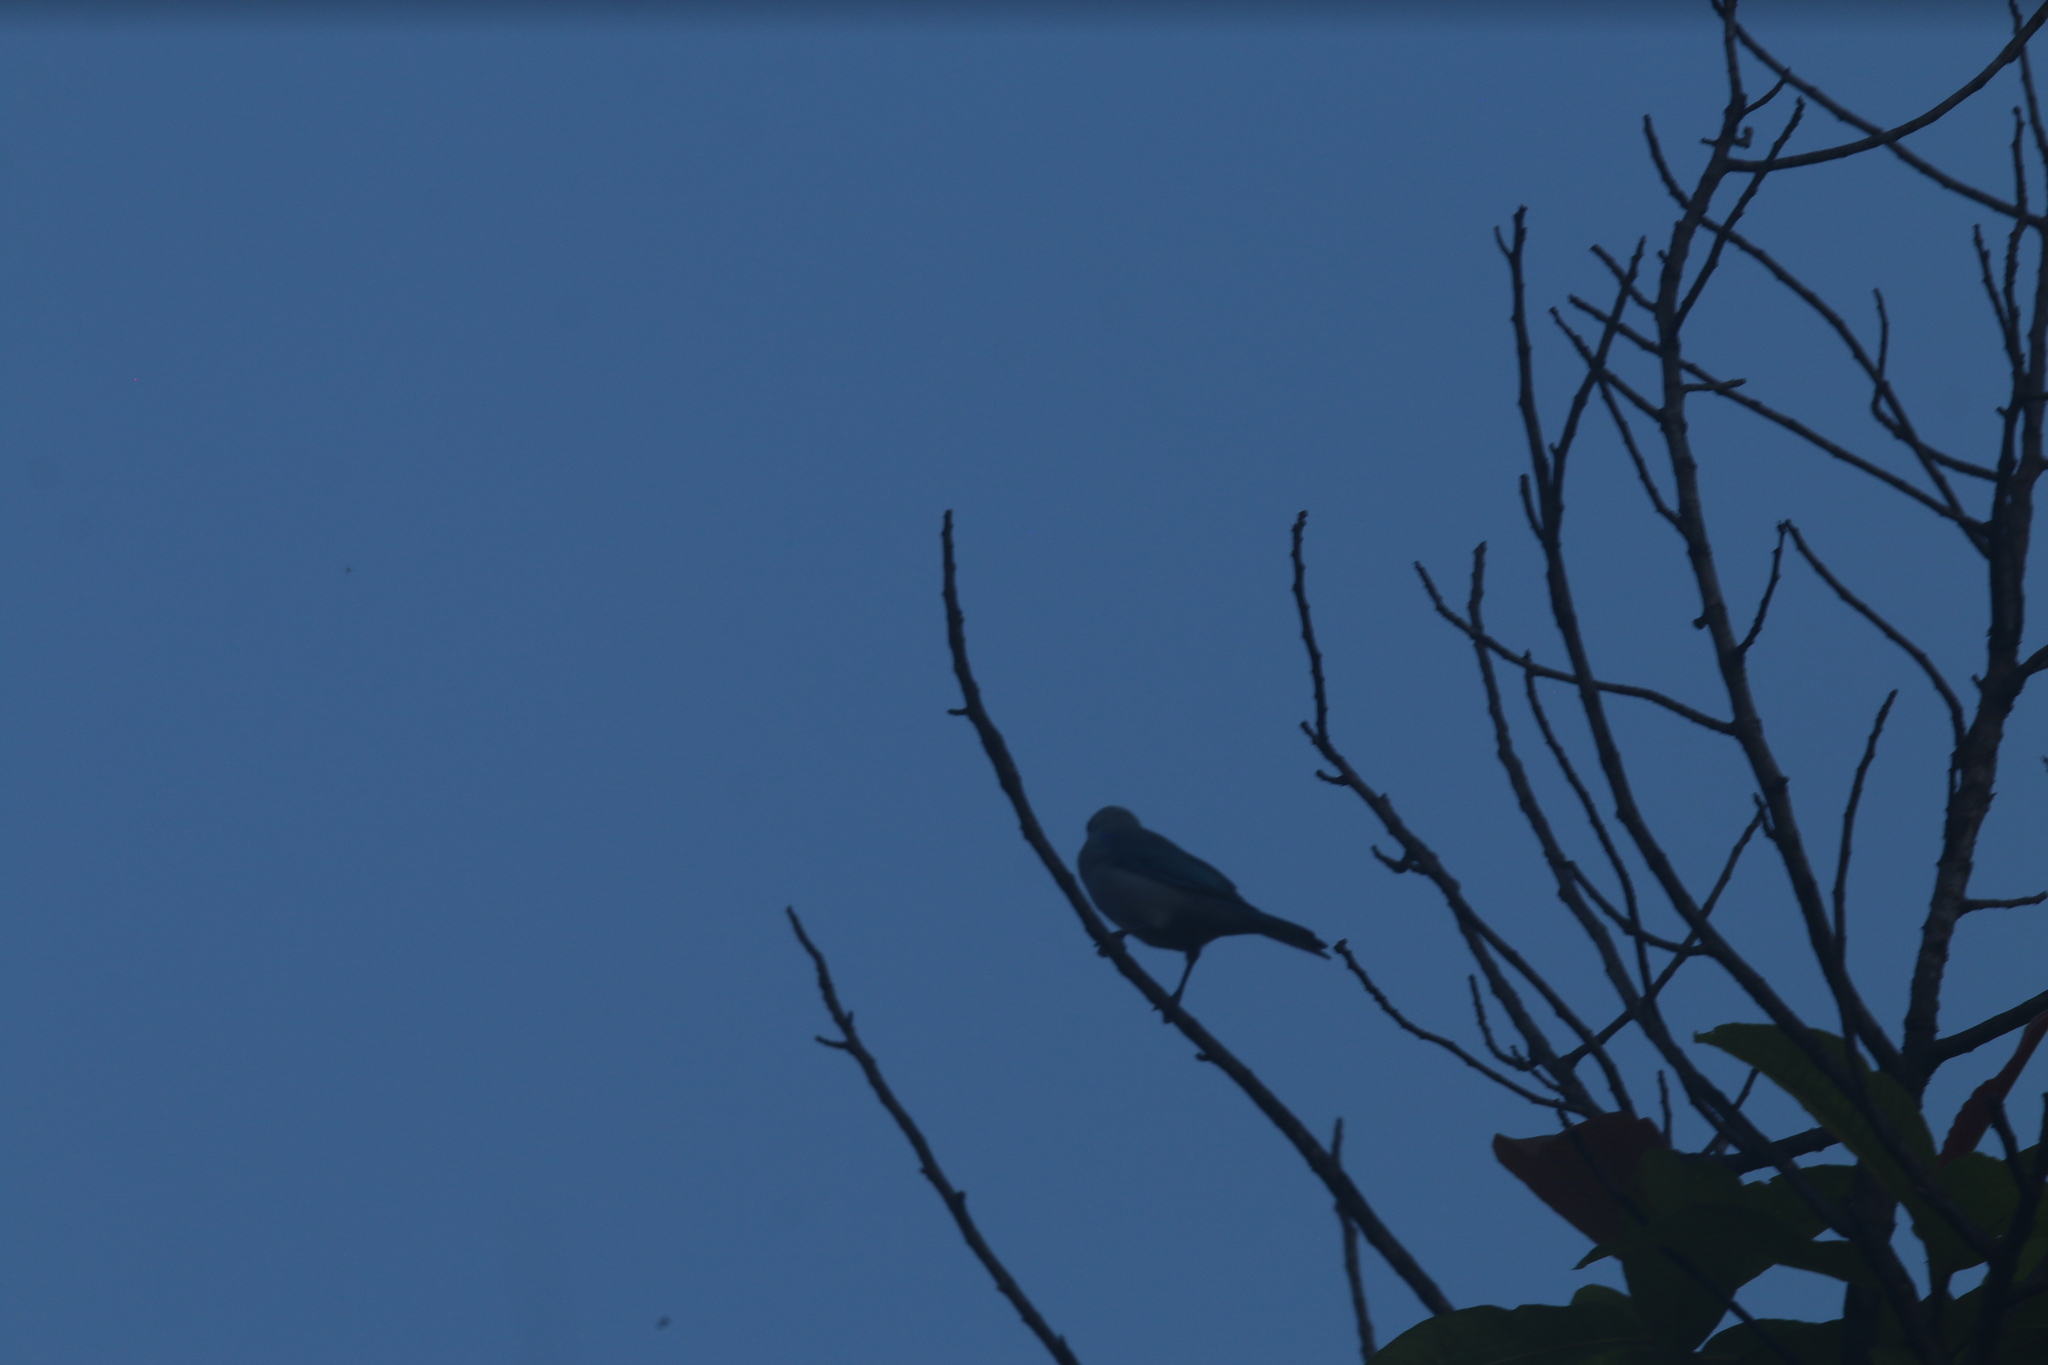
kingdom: Animalia
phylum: Chordata
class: Aves
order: Passeriformes
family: Thraupidae
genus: Thraupis
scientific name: Thraupis episcopus
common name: Blue-grey tanager
